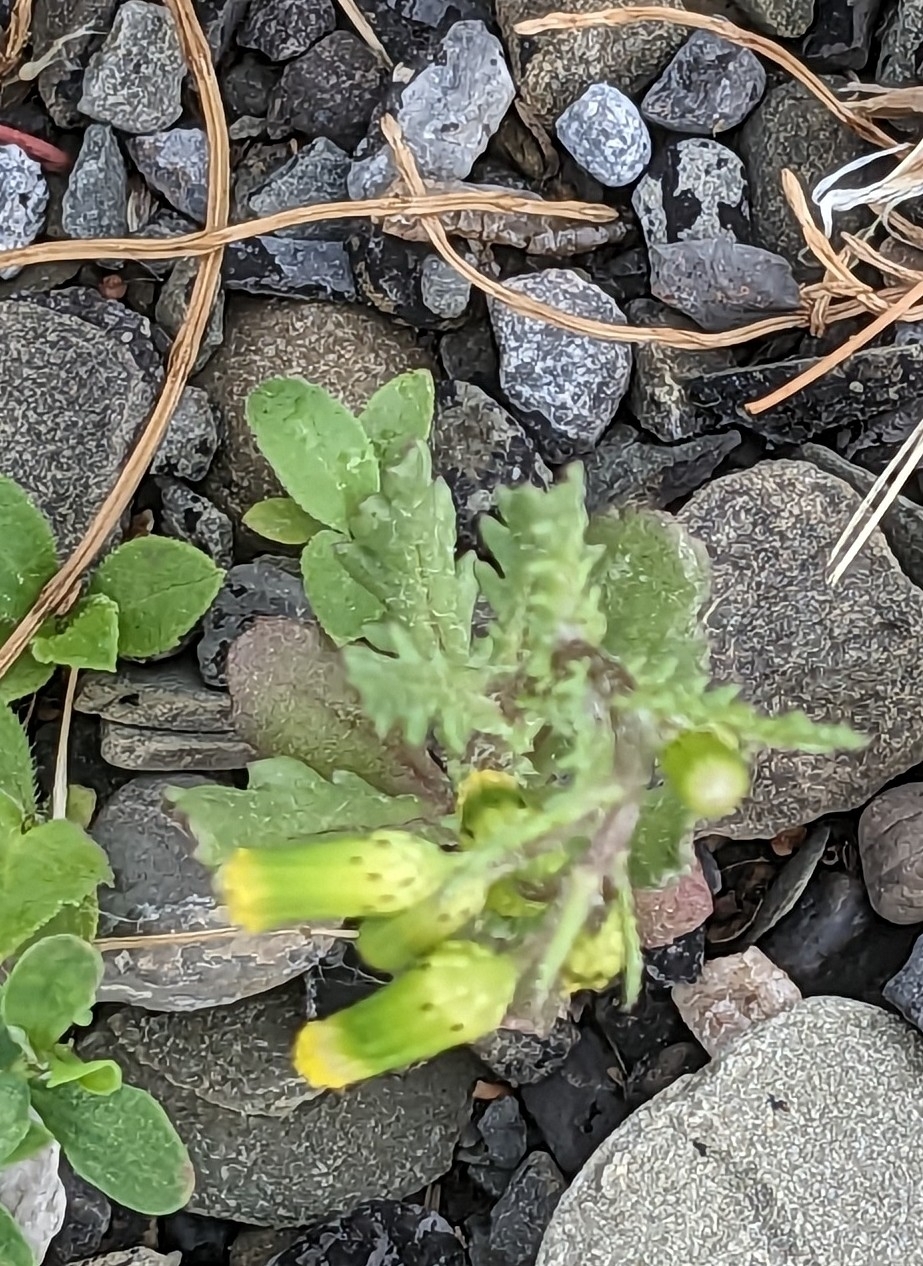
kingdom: Plantae
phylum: Tracheophyta
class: Magnoliopsida
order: Asterales
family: Asteraceae
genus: Senecio
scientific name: Senecio vulgaris
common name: Old-man-in-the-spring
